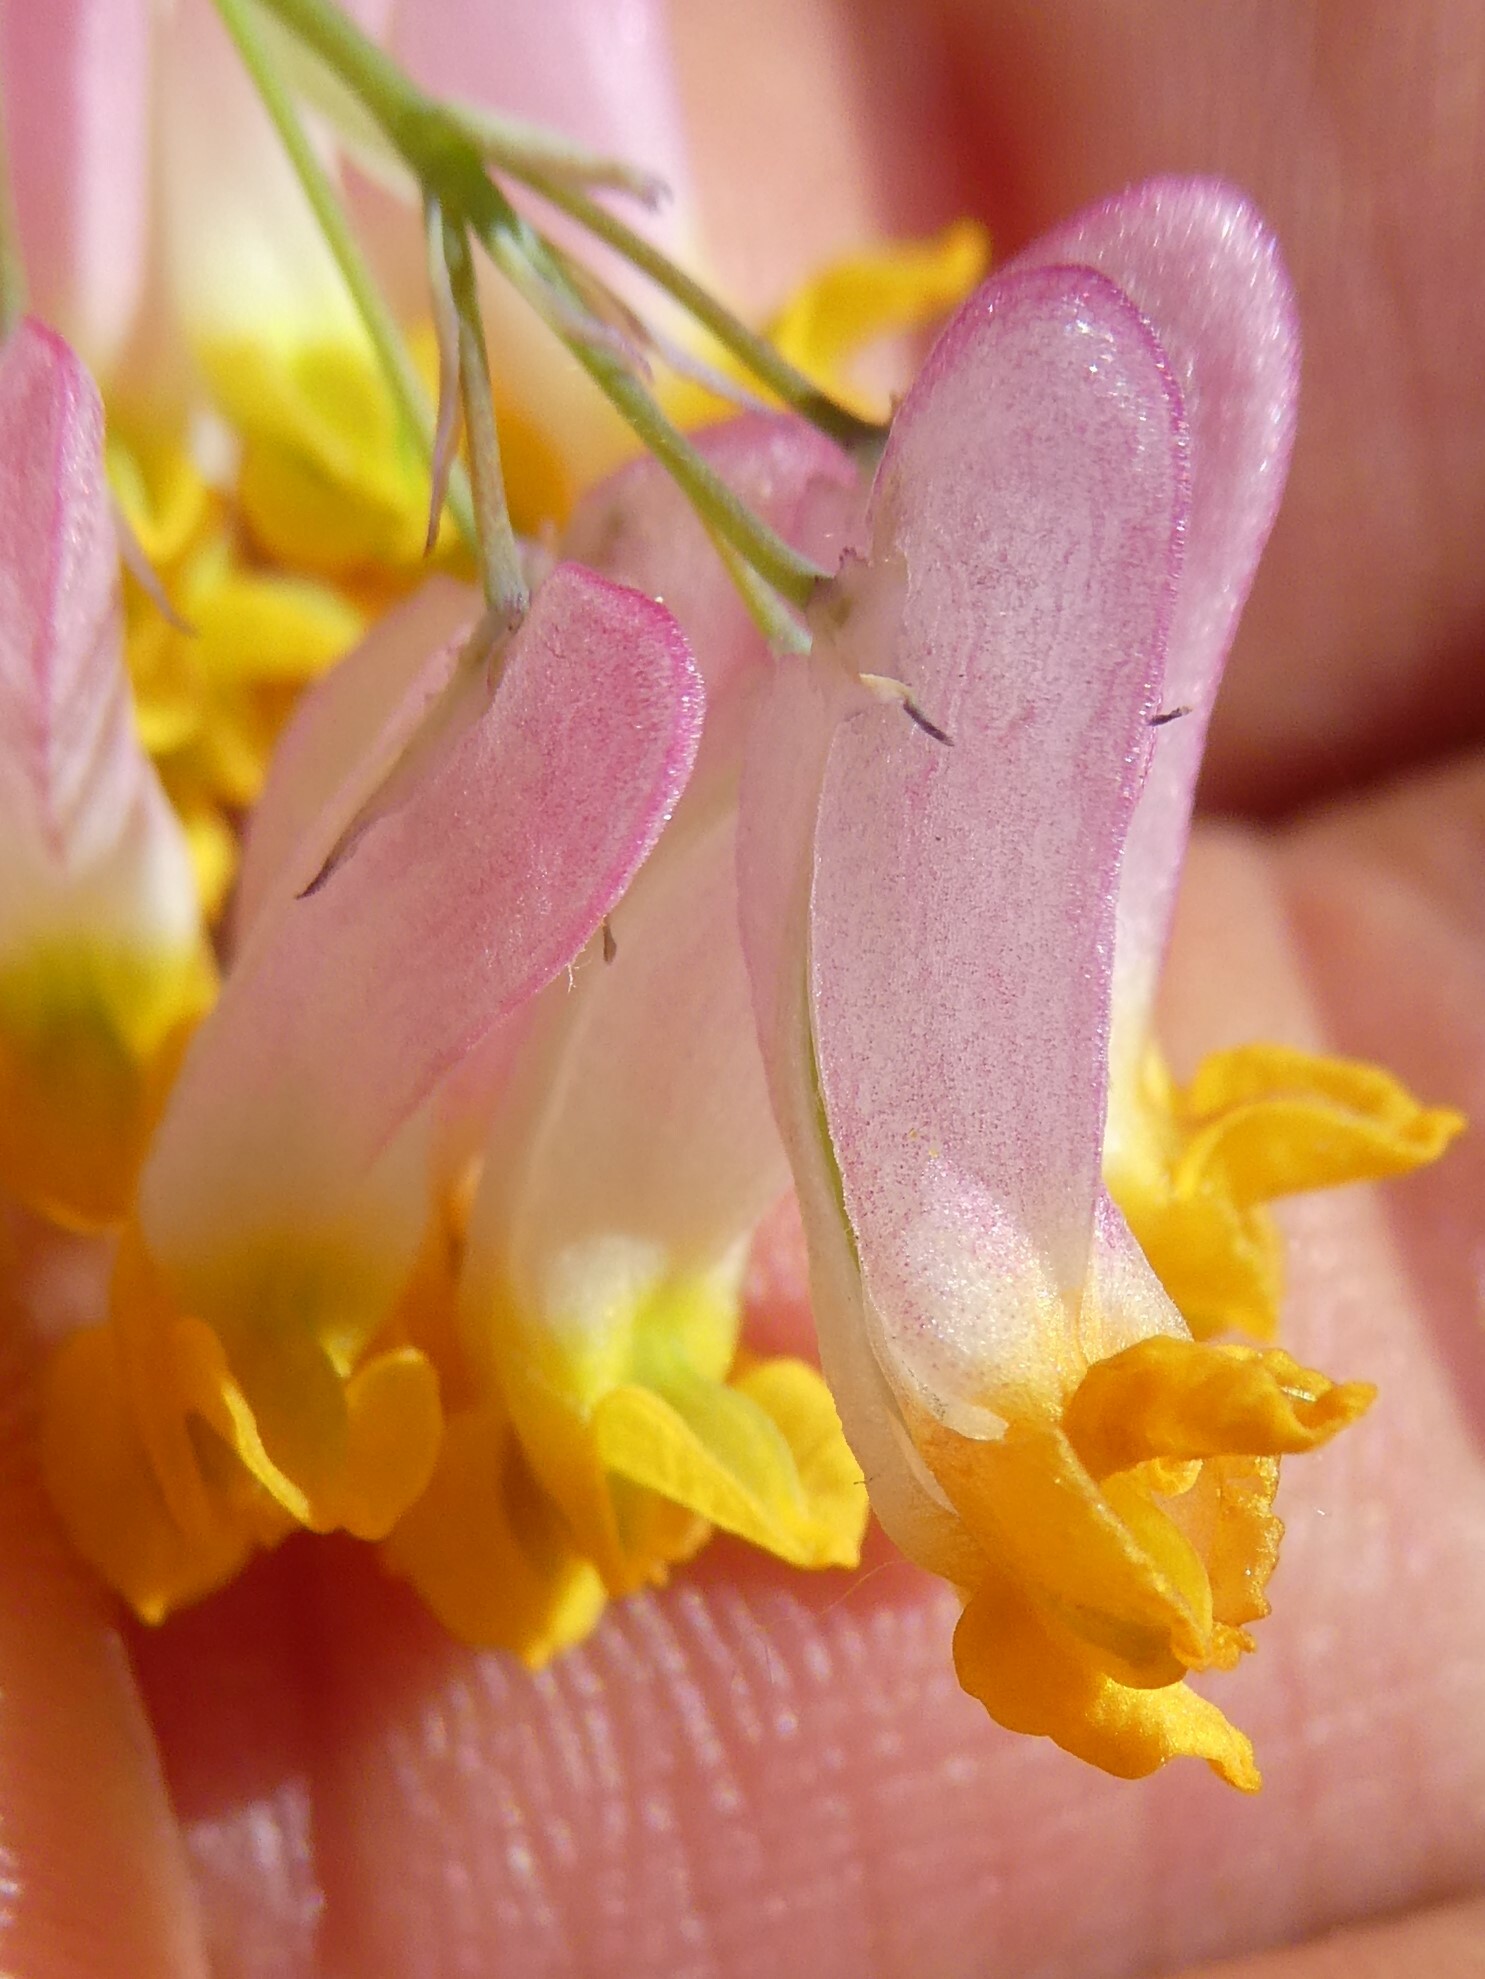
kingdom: Plantae
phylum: Tracheophyta
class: Magnoliopsida
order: Ranunculales
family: Papaveraceae
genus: Capnoides
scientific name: Capnoides sempervirens
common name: Rock harlequin
